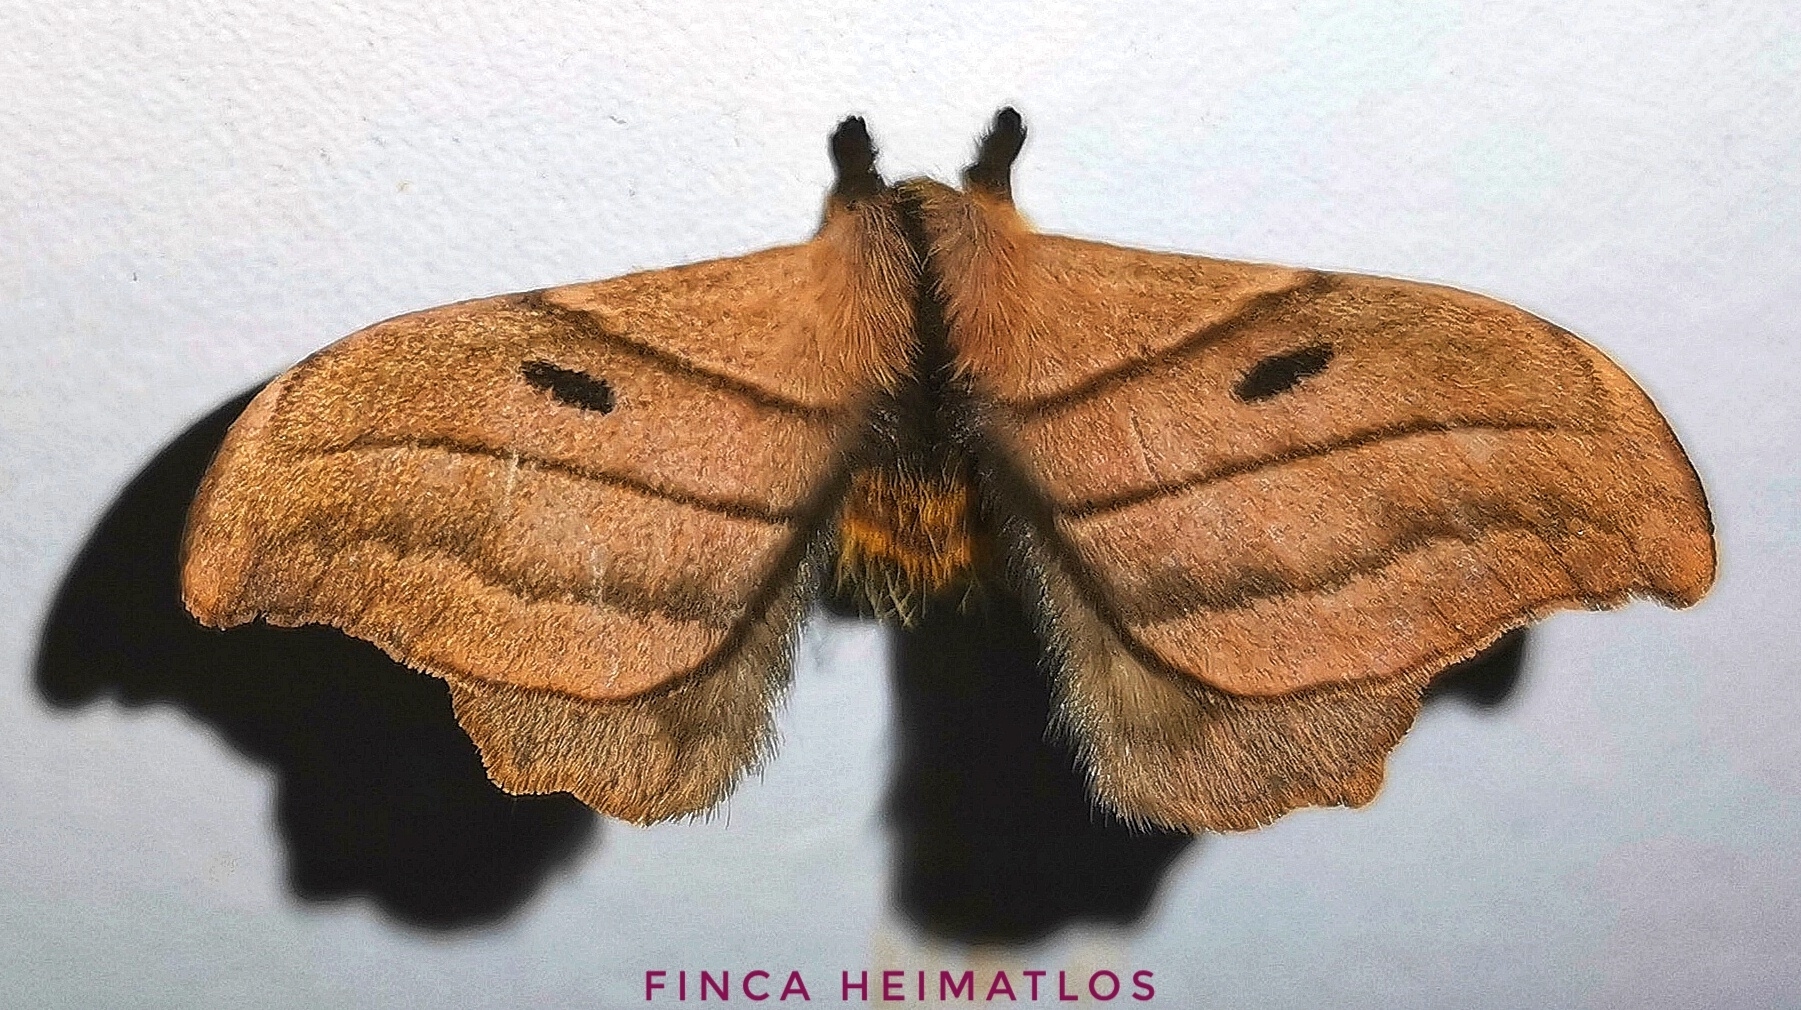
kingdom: Animalia
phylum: Arthropoda
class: Insecta
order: Lepidoptera
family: Saturniidae
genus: Hyperchiria
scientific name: Hyperchiria nausica
